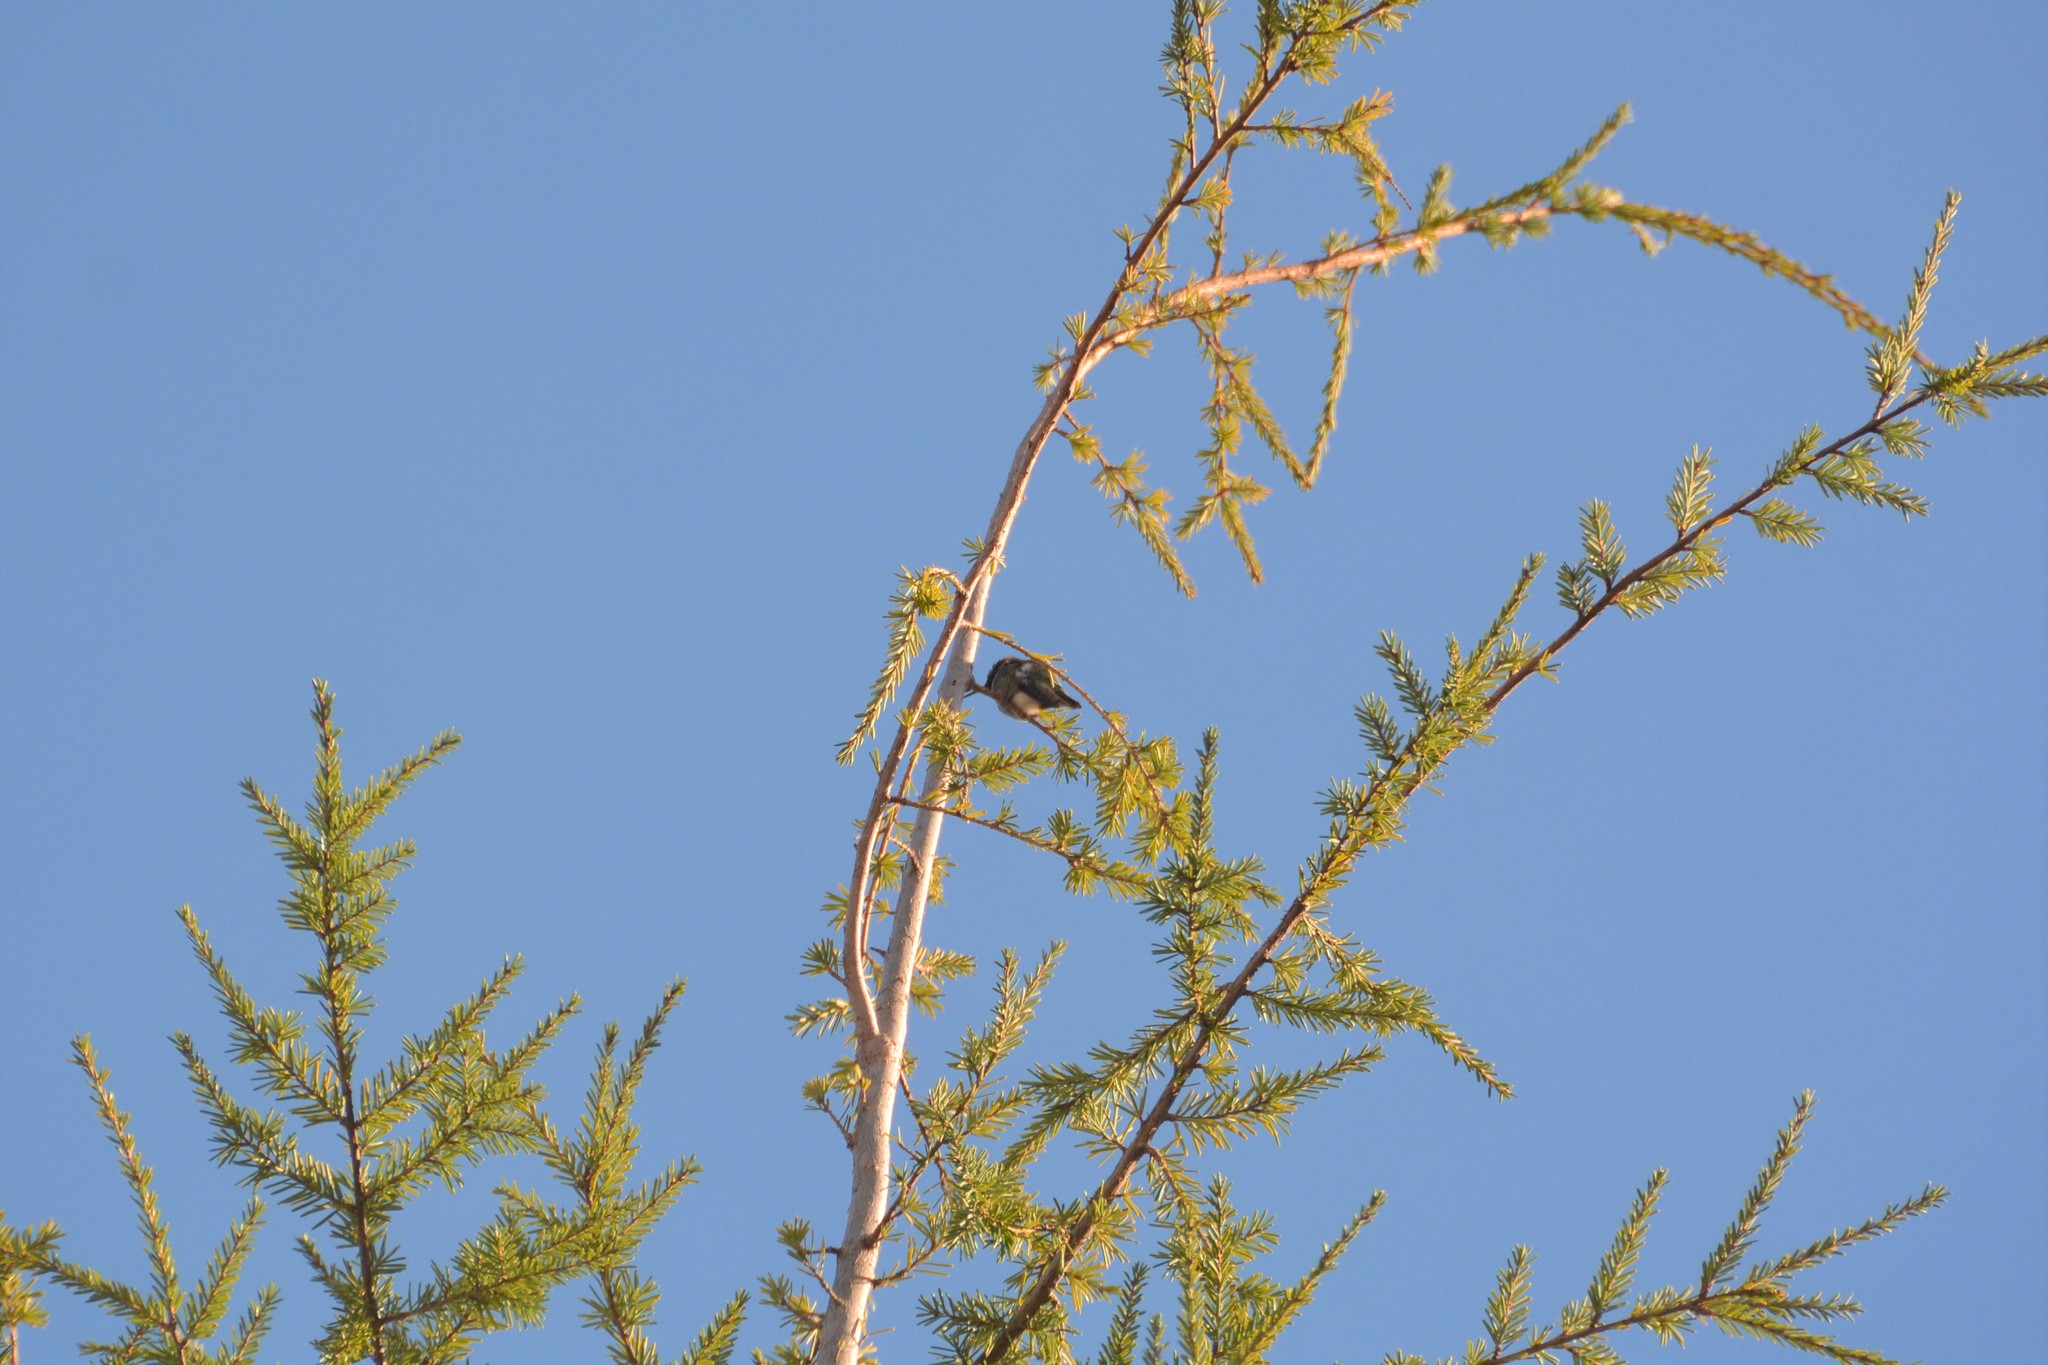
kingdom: Animalia
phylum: Chordata
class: Aves
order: Apodiformes
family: Trochilidae
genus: Calypte
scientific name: Calypte anna
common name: Anna's hummingbird
